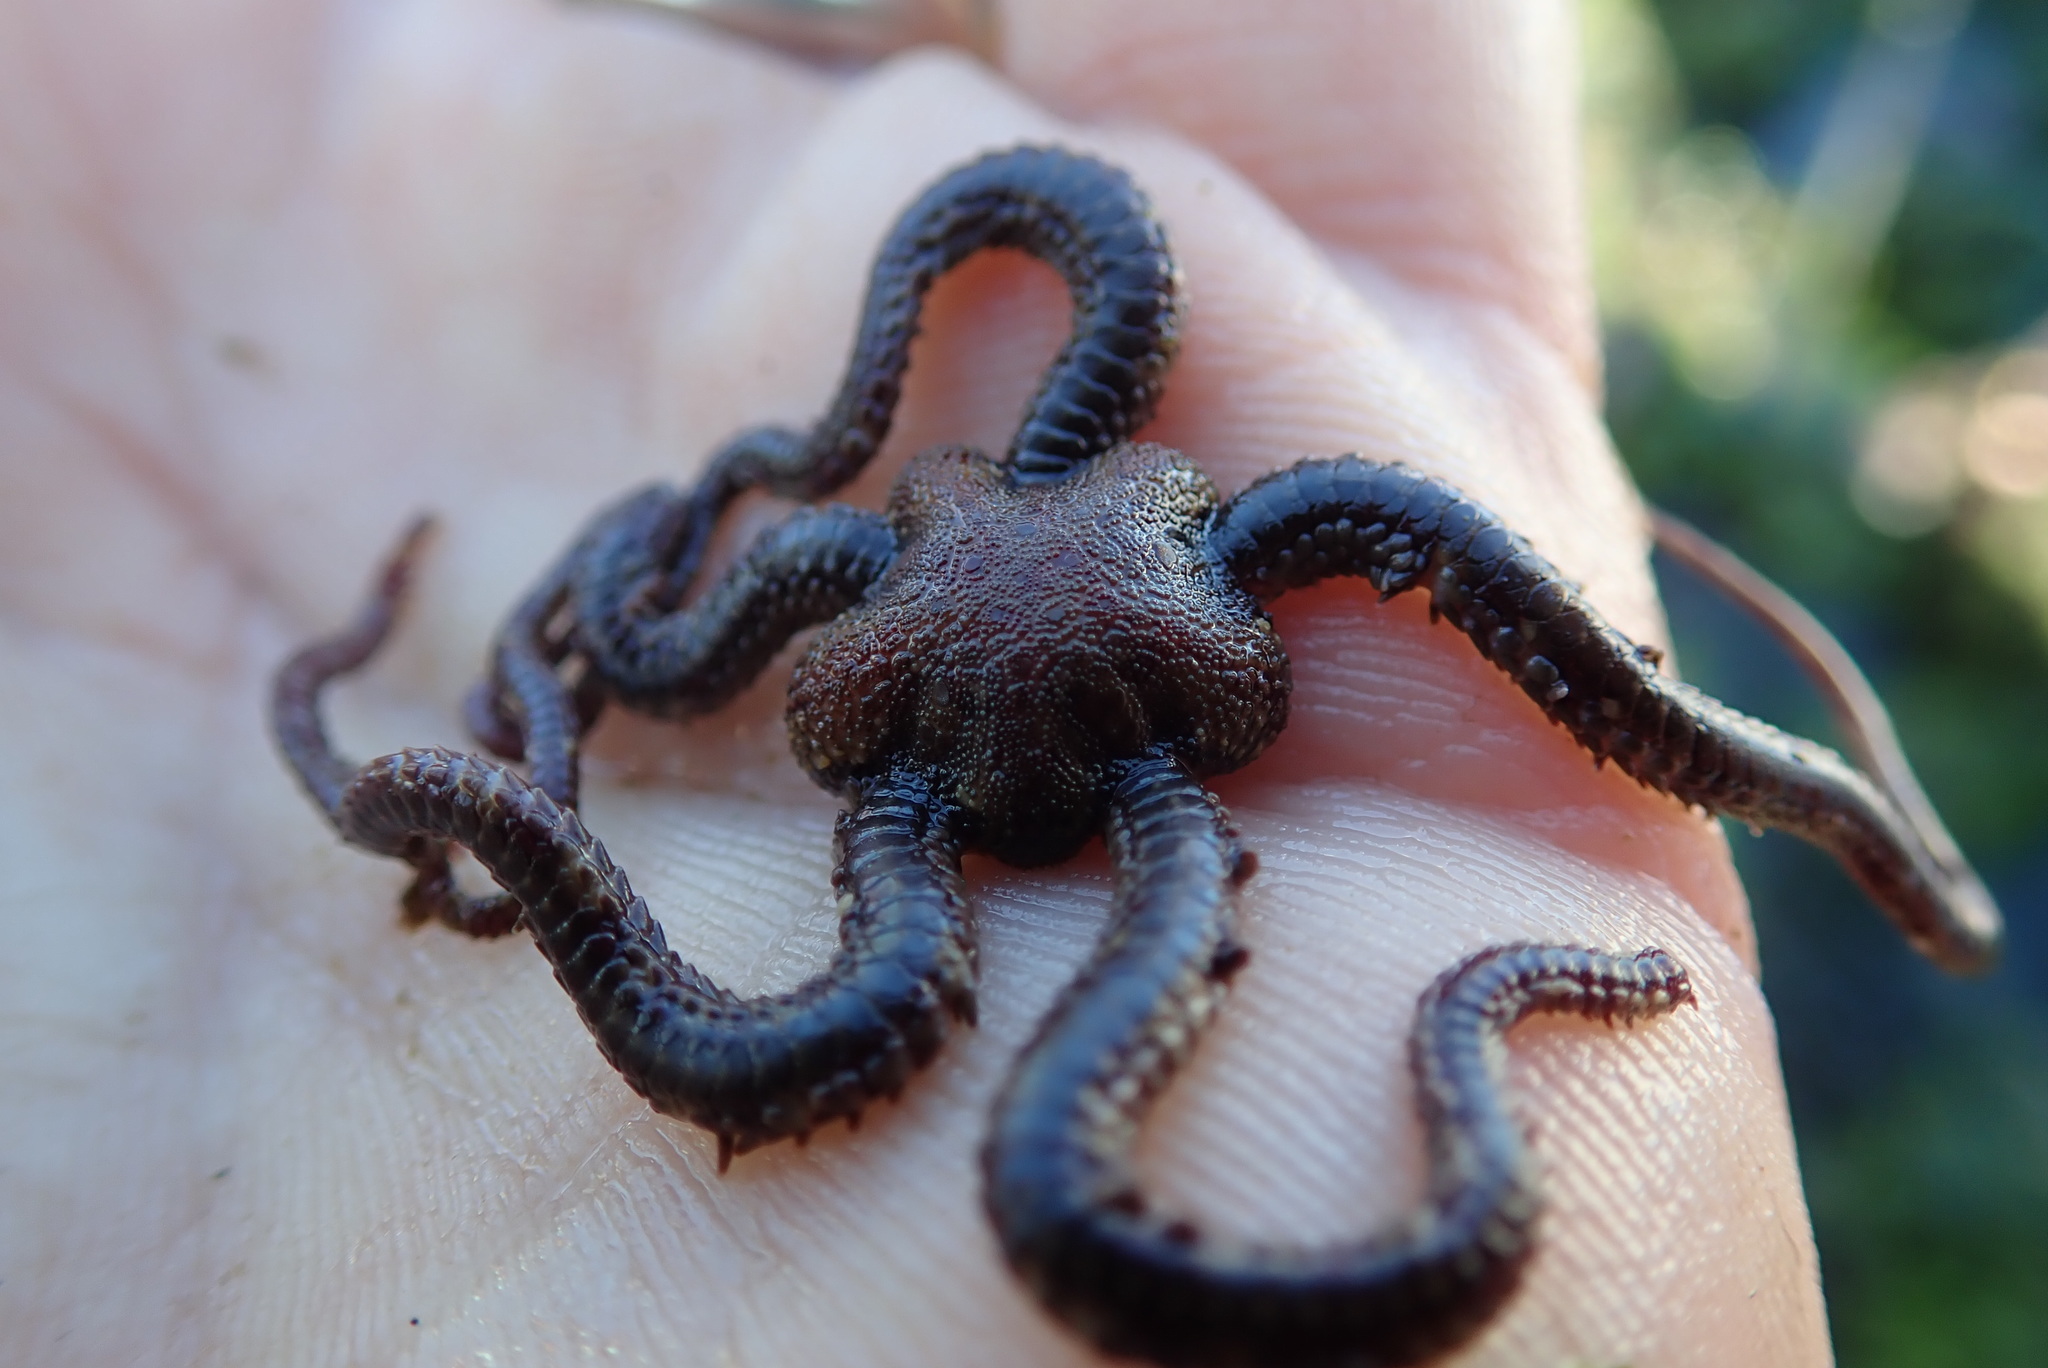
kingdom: Animalia
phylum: Echinodermata
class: Ophiuroidea
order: Amphilepidida
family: Ophiopholidae
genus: Ophiopholis
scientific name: Ophiopholis aculeata
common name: Crevice brittlestar
